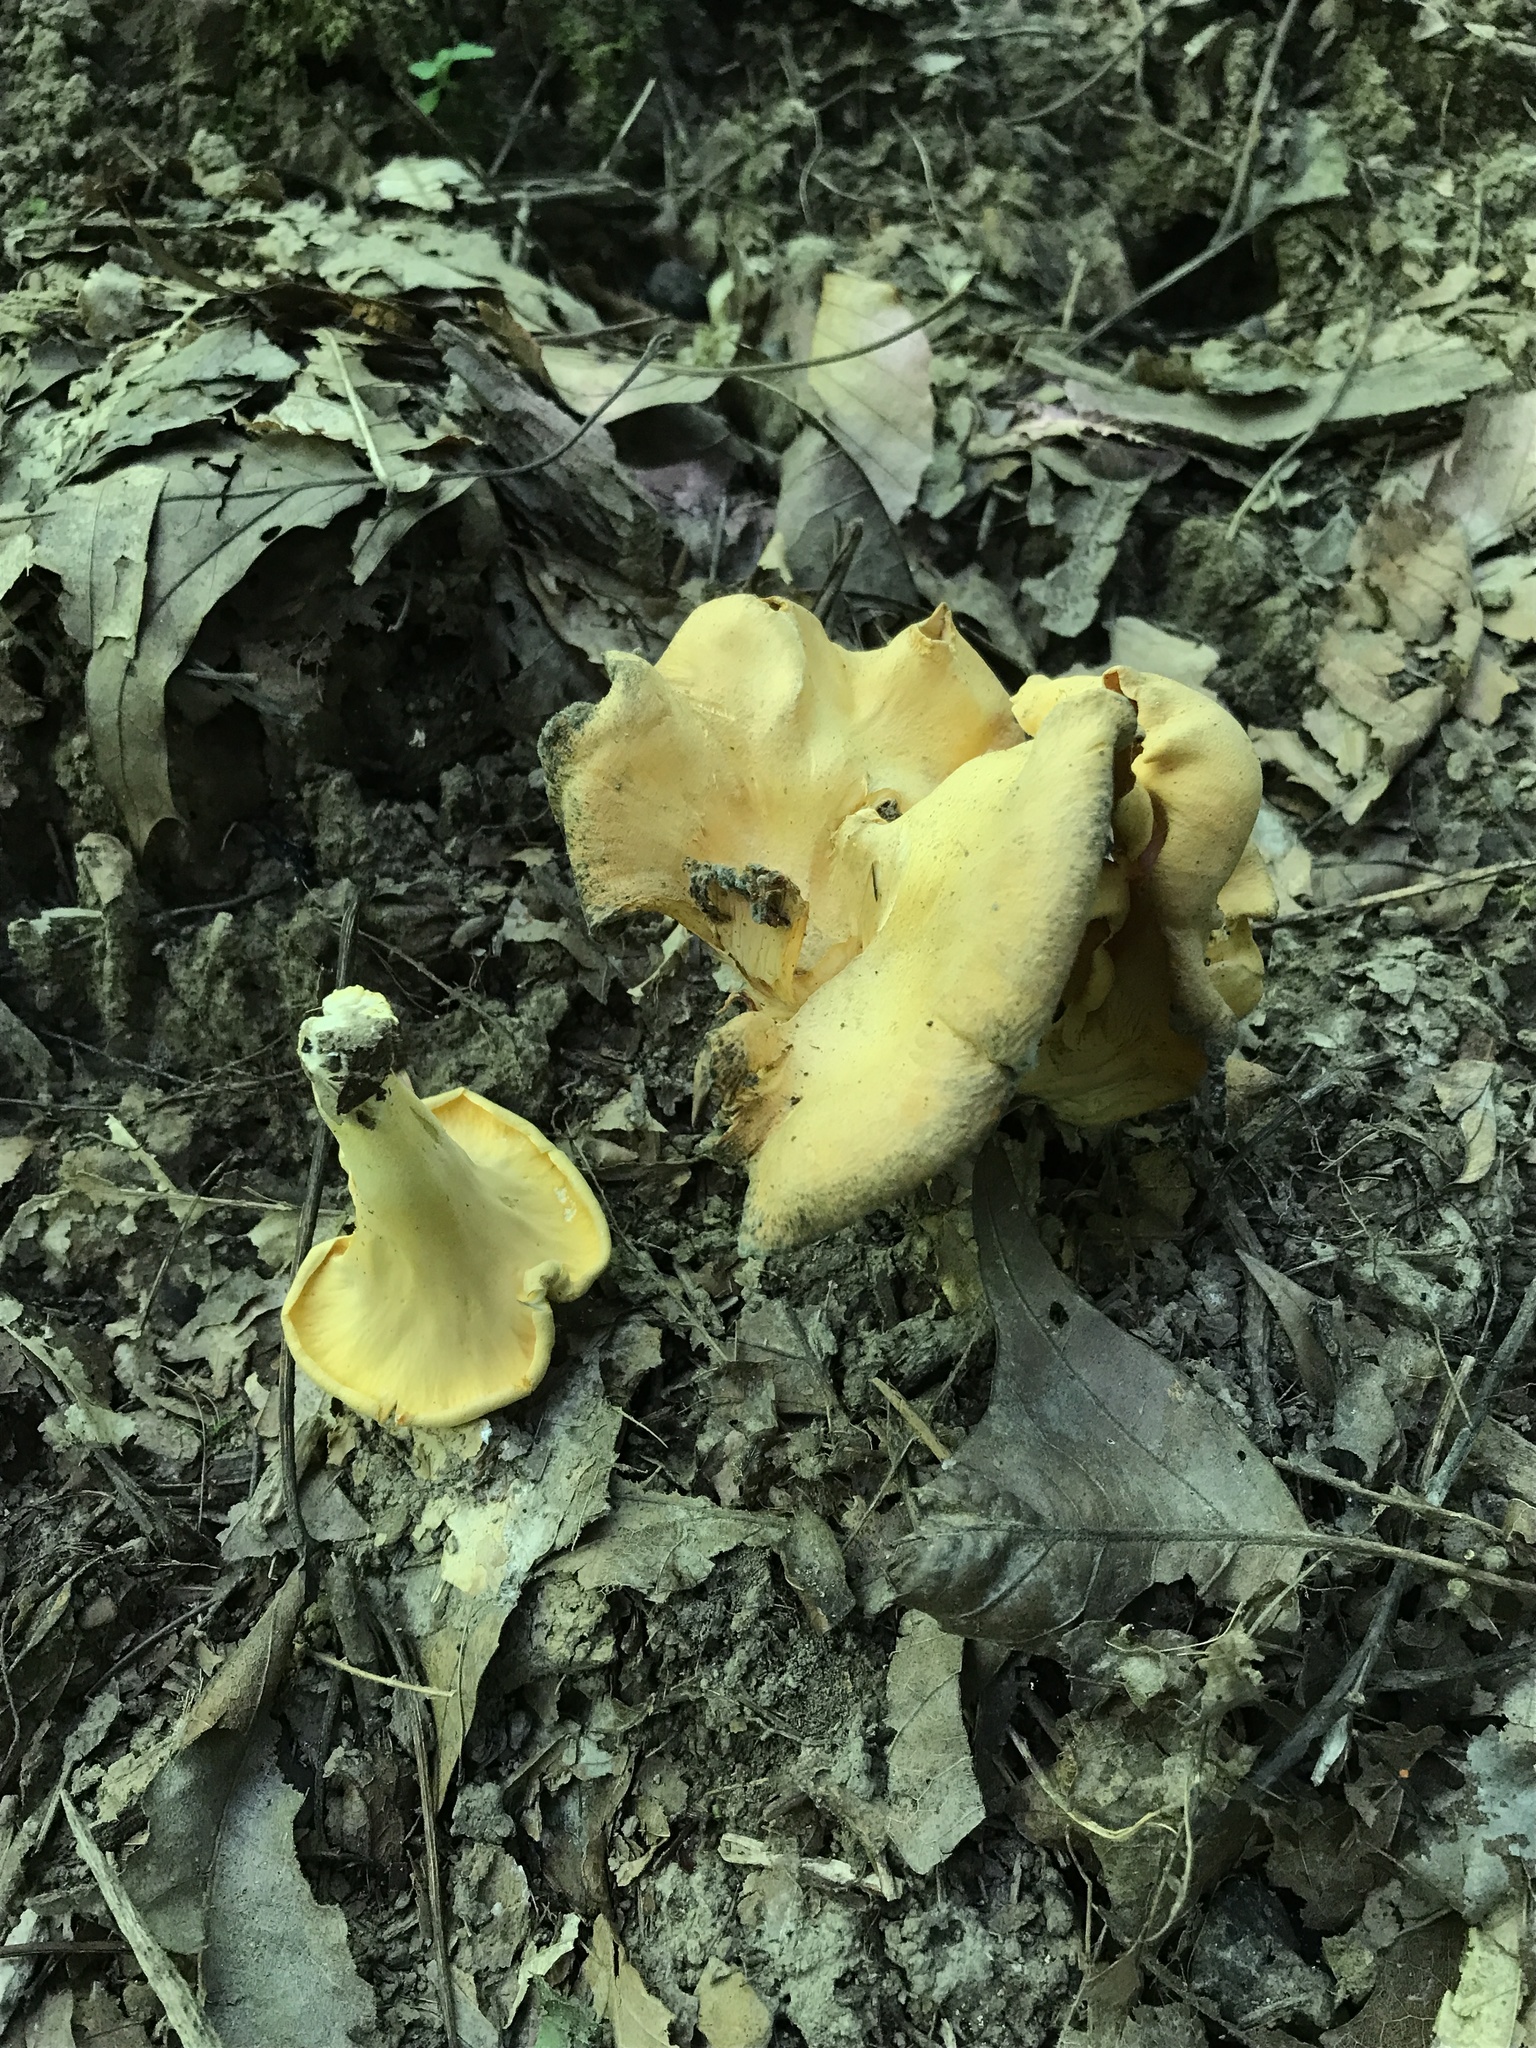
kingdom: Fungi
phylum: Basidiomycota
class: Agaricomycetes
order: Cantharellales
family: Hydnaceae
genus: Cantharellus
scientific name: Cantharellus flavolateritius
